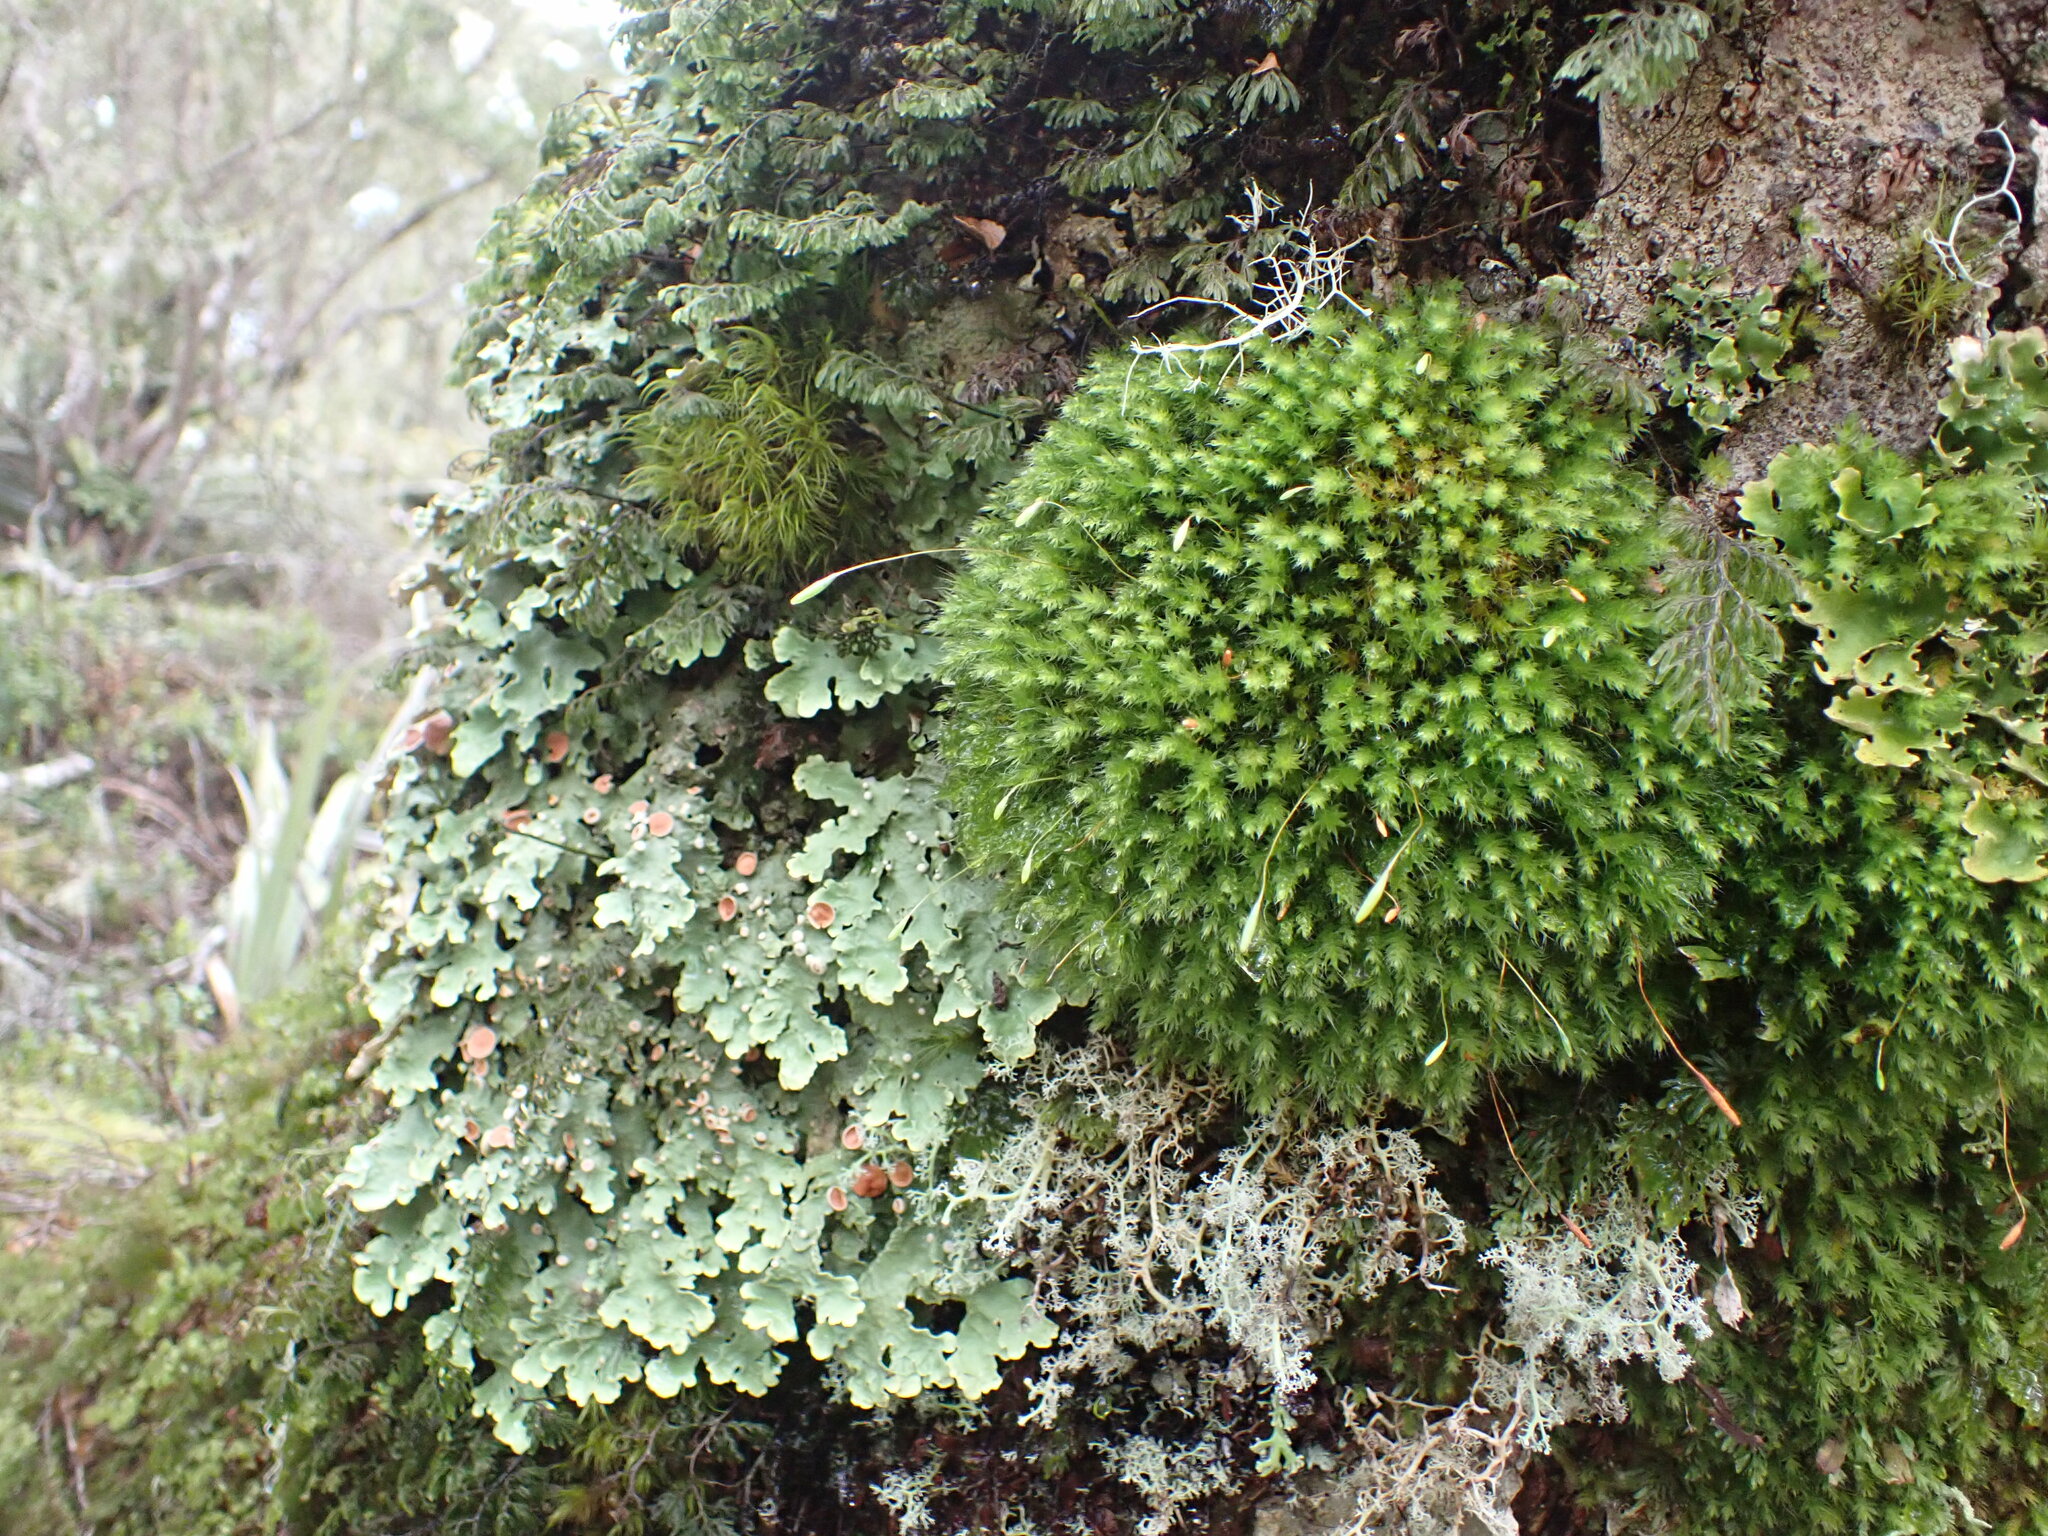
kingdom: Plantae
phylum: Bryophyta
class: Bryopsida
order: Bryales
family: Leptostomataceae
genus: Leptostomum
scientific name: Leptostomum inclinans
